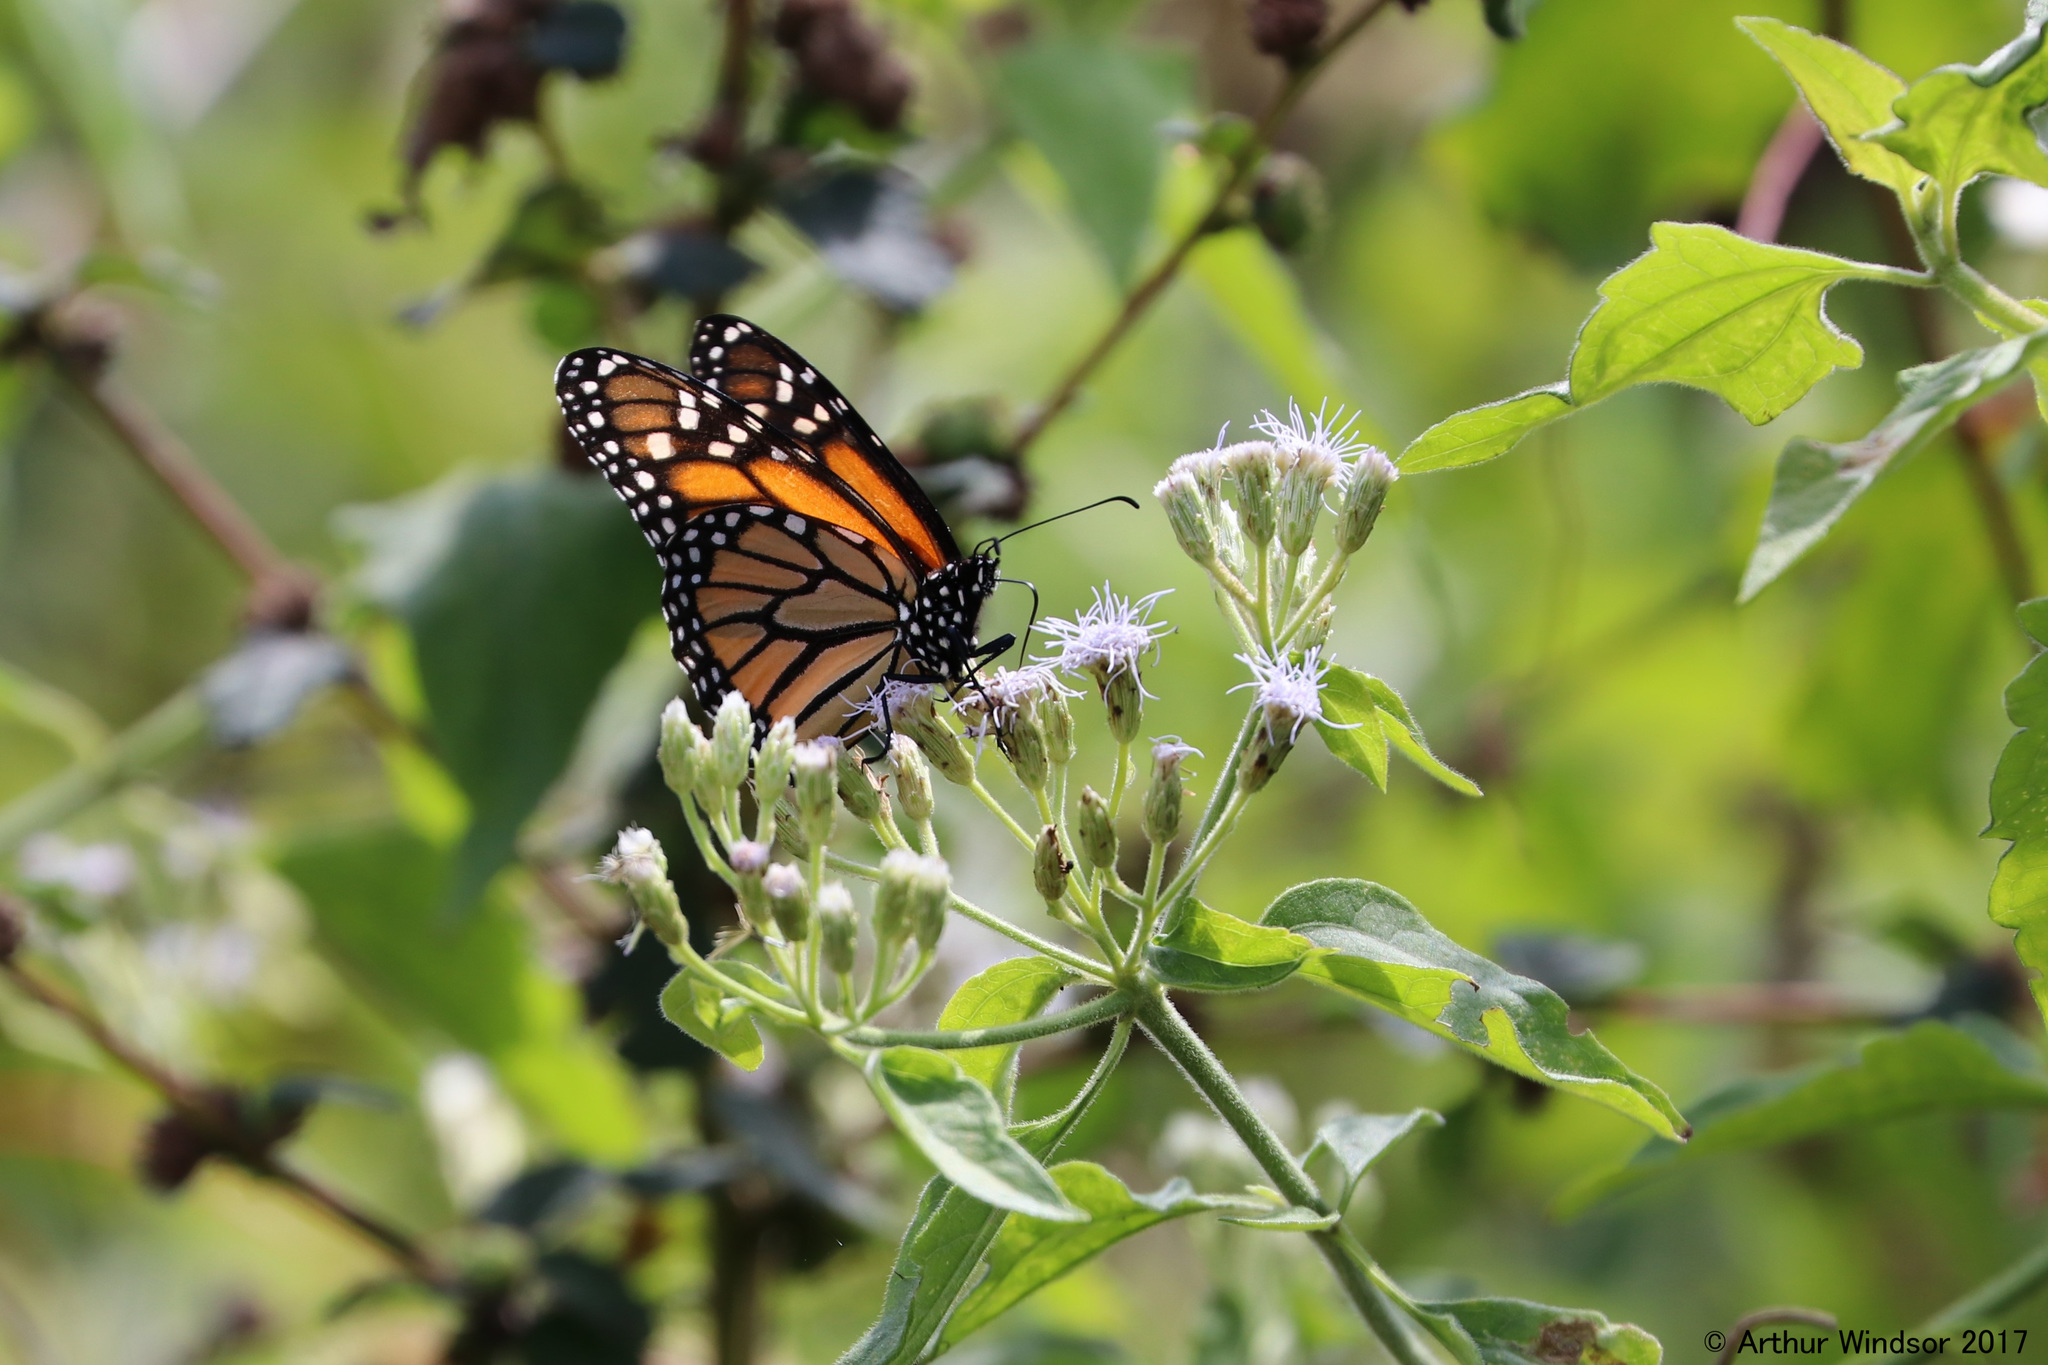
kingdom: Animalia
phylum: Arthropoda
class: Insecta
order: Lepidoptera
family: Nymphalidae
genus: Danaus
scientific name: Danaus plexippus
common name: Monarch
